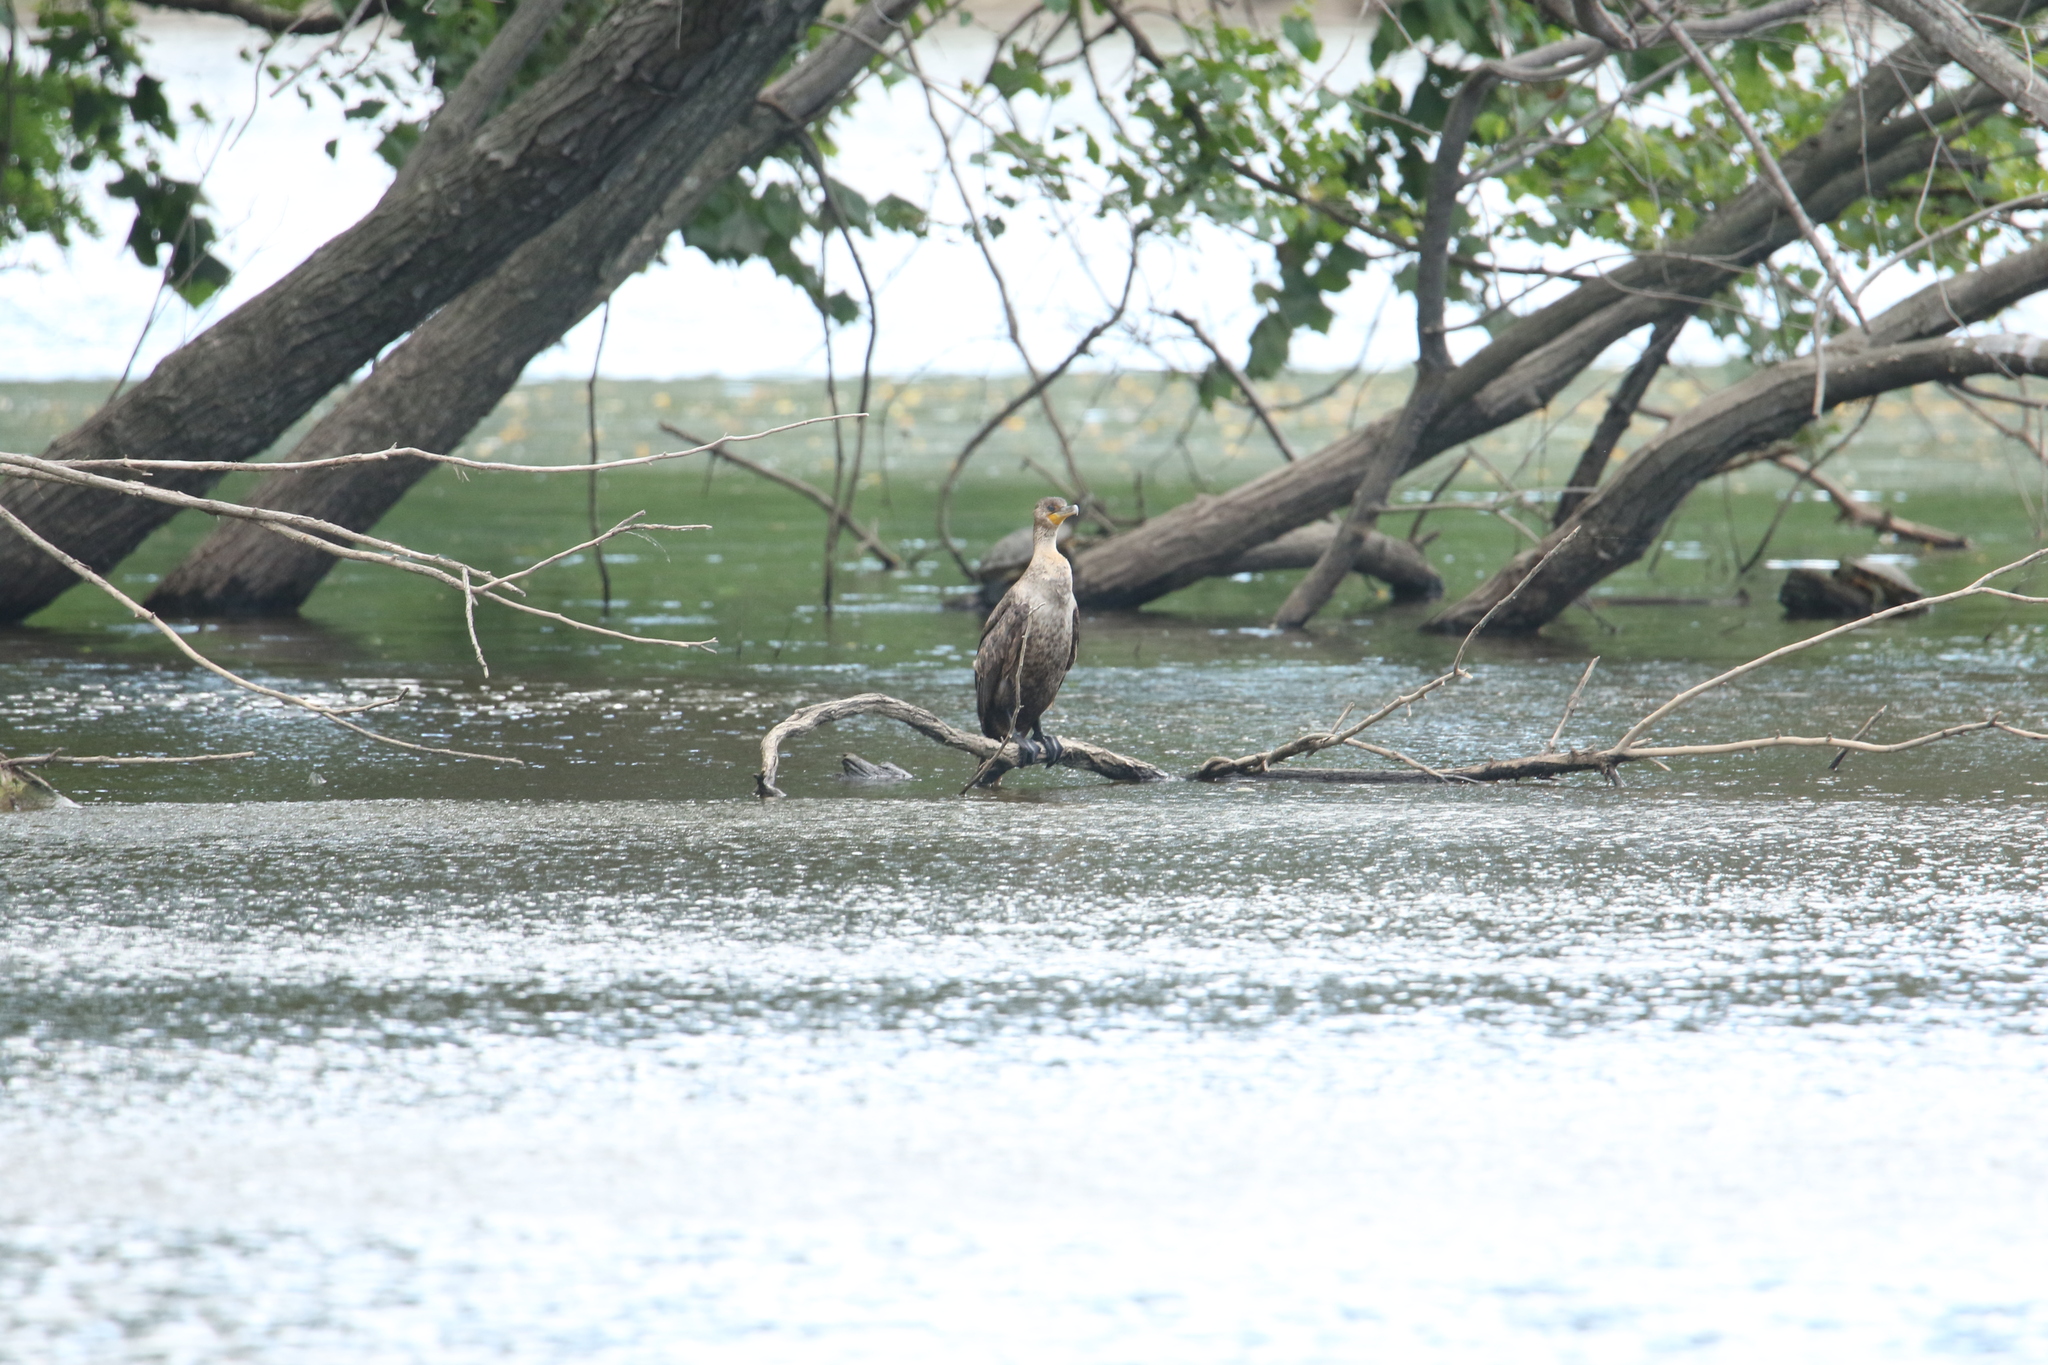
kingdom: Animalia
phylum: Chordata
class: Aves
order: Suliformes
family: Phalacrocoracidae
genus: Phalacrocorax
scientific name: Phalacrocorax auritus
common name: Double-crested cormorant
